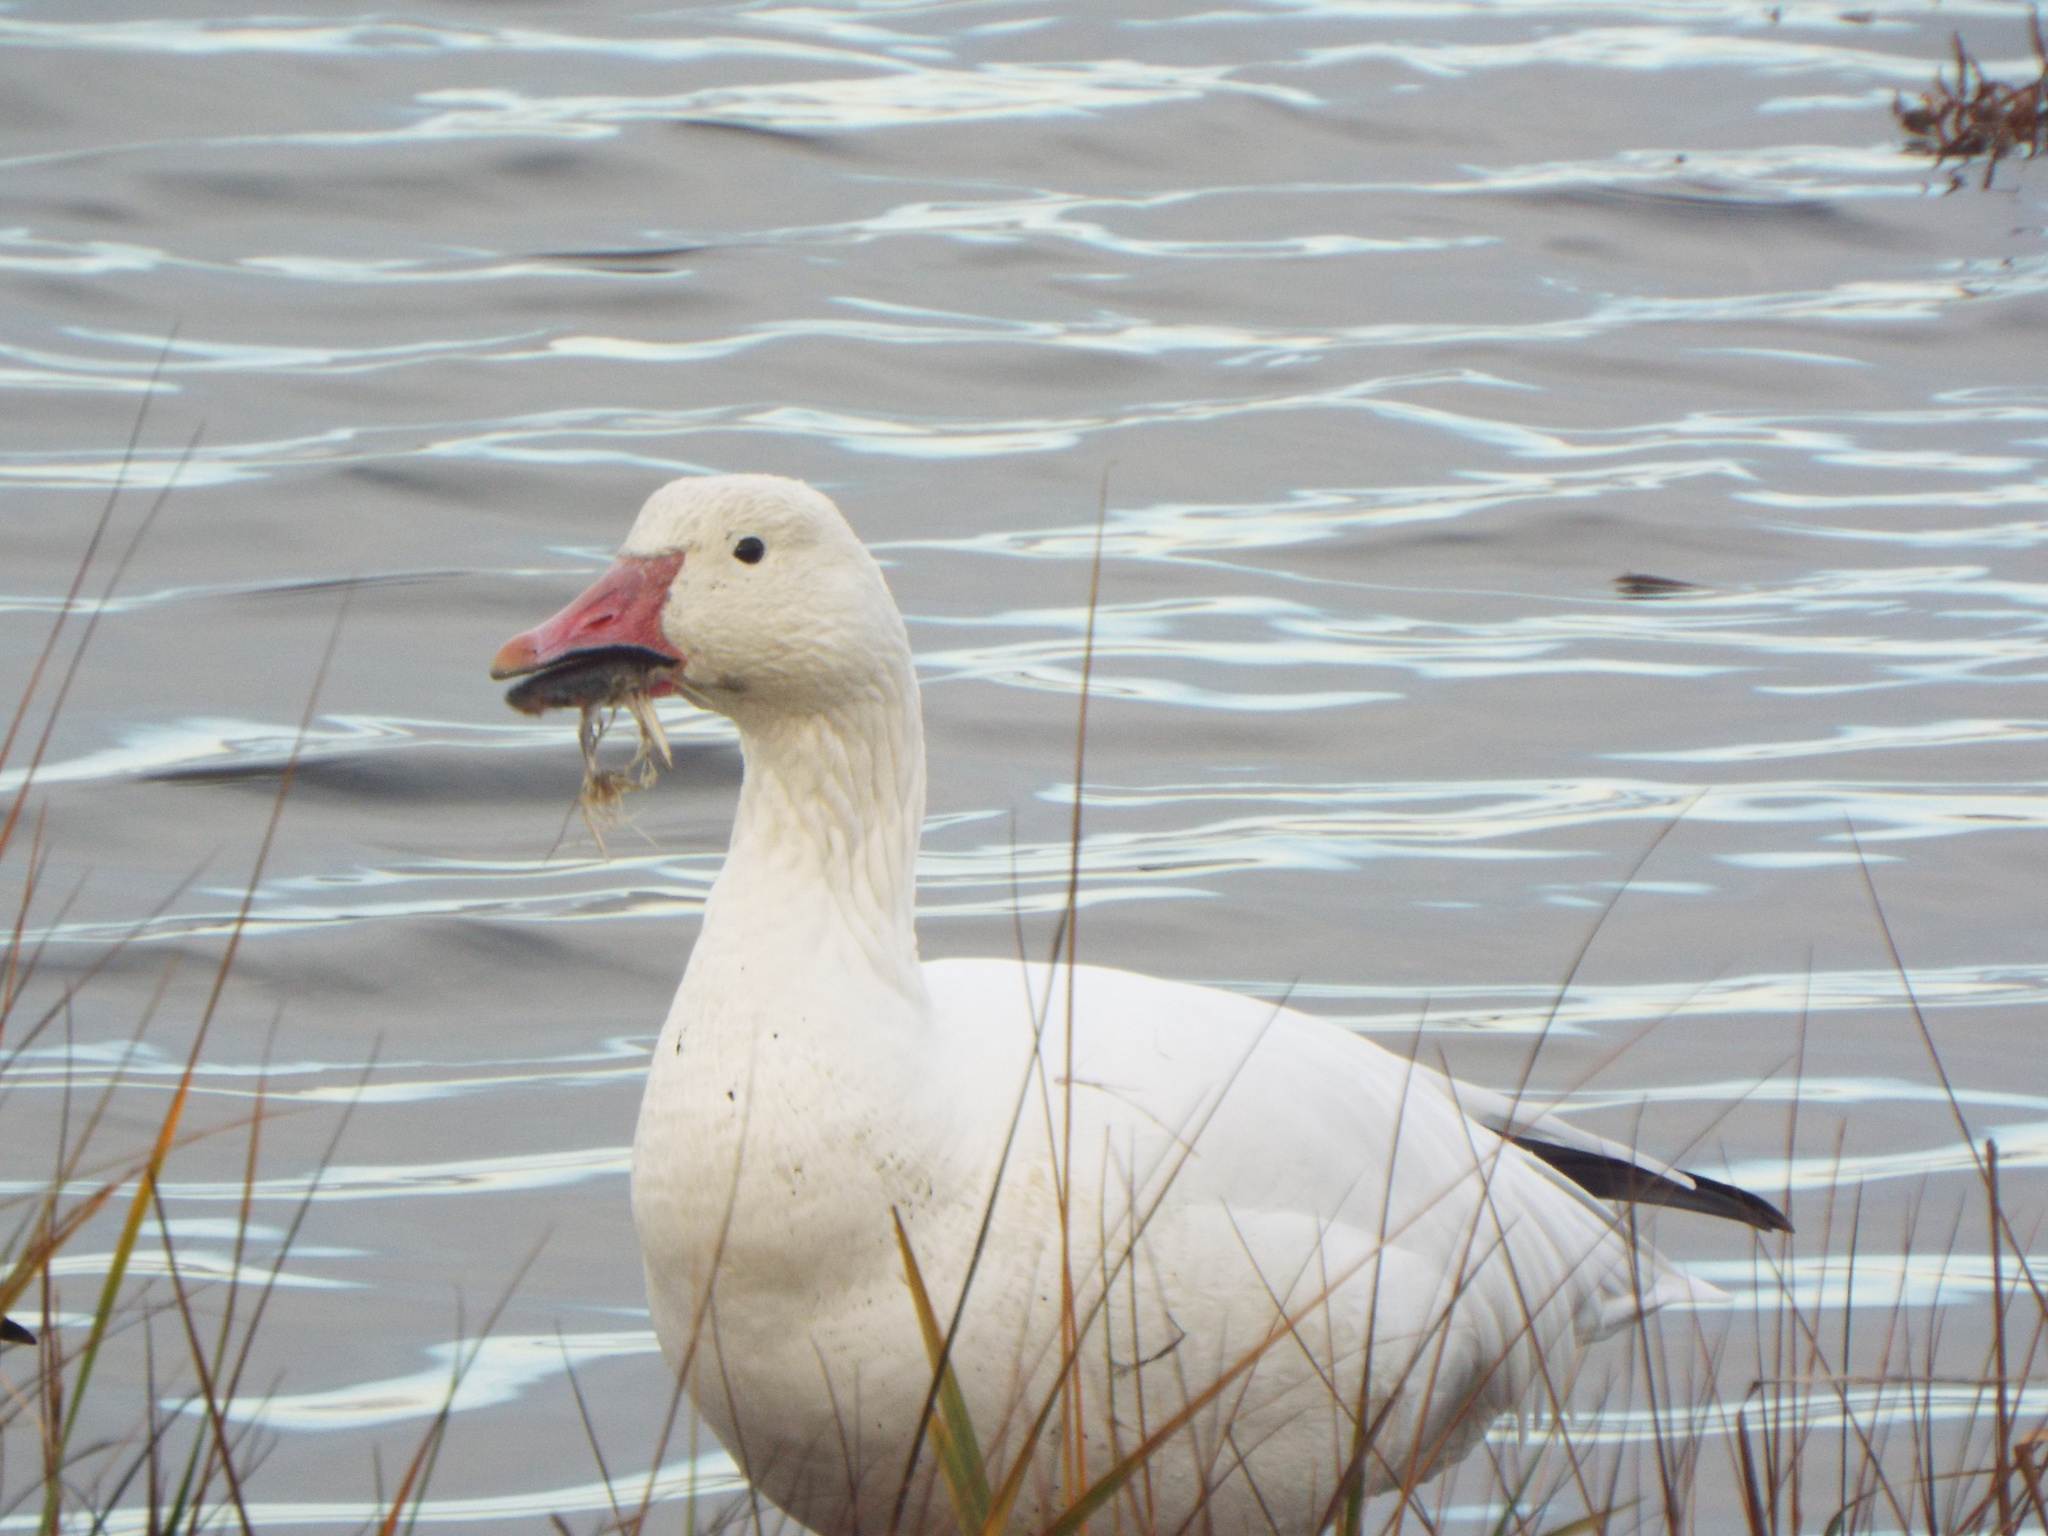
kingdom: Animalia
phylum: Chordata
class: Aves
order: Anseriformes
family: Anatidae
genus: Anser
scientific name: Anser caerulescens
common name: Snow goose
